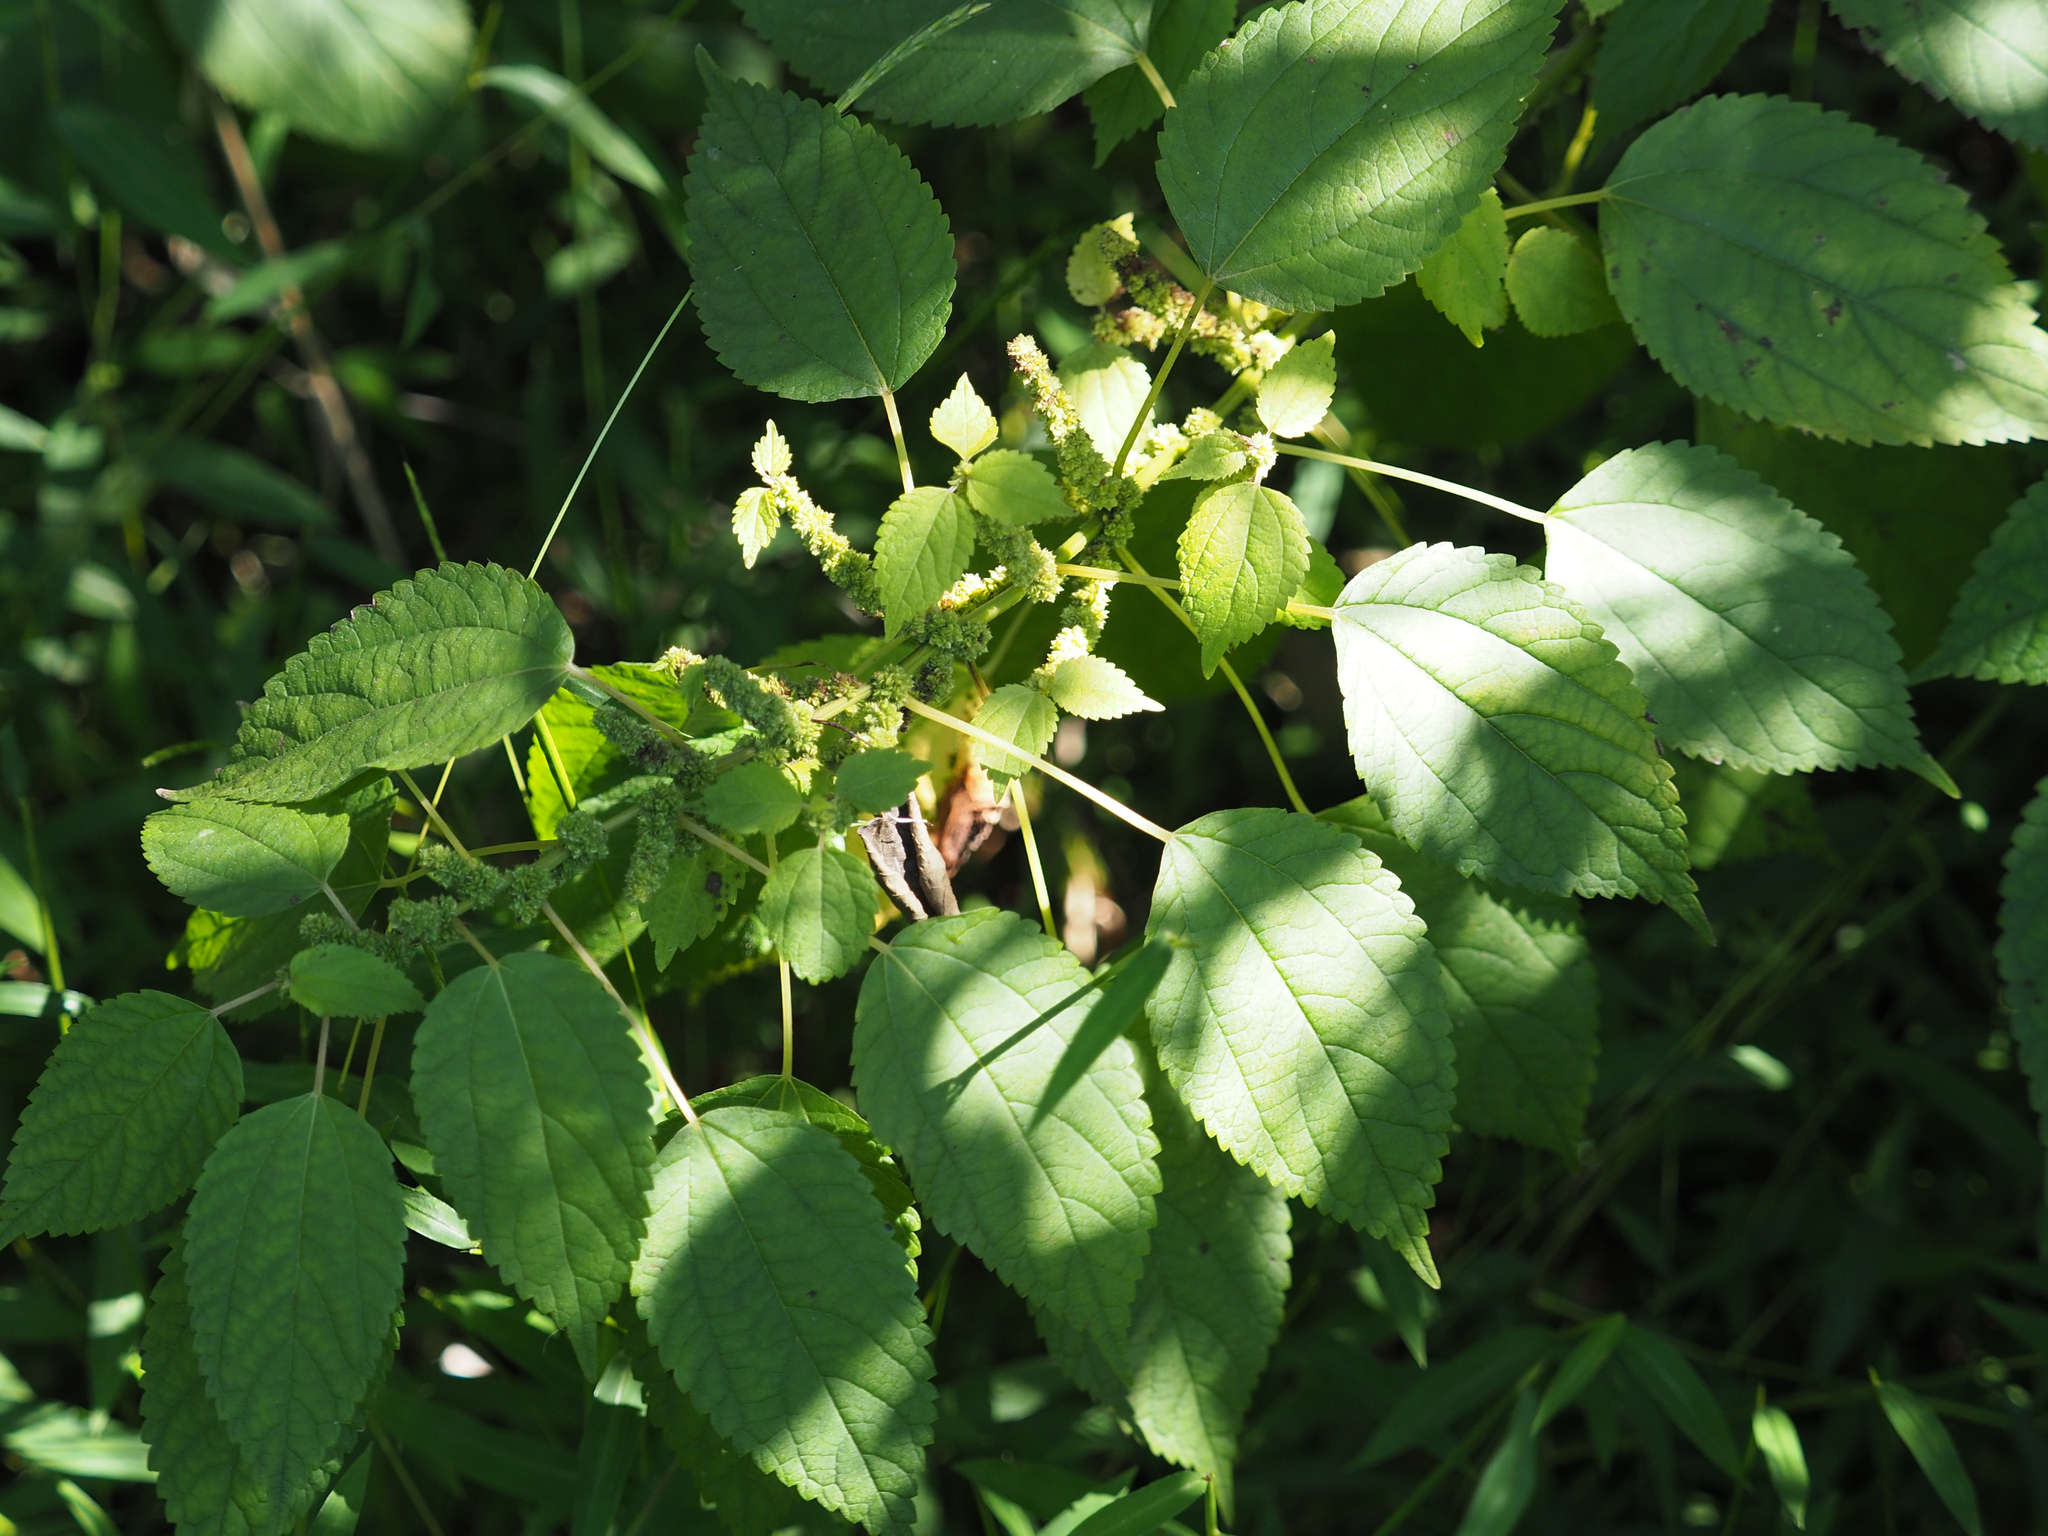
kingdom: Plantae
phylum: Tracheophyta
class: Magnoliopsida
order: Rosales
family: Urticaceae
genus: Boehmeria
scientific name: Boehmeria cylindrica
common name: Bog-hemp
